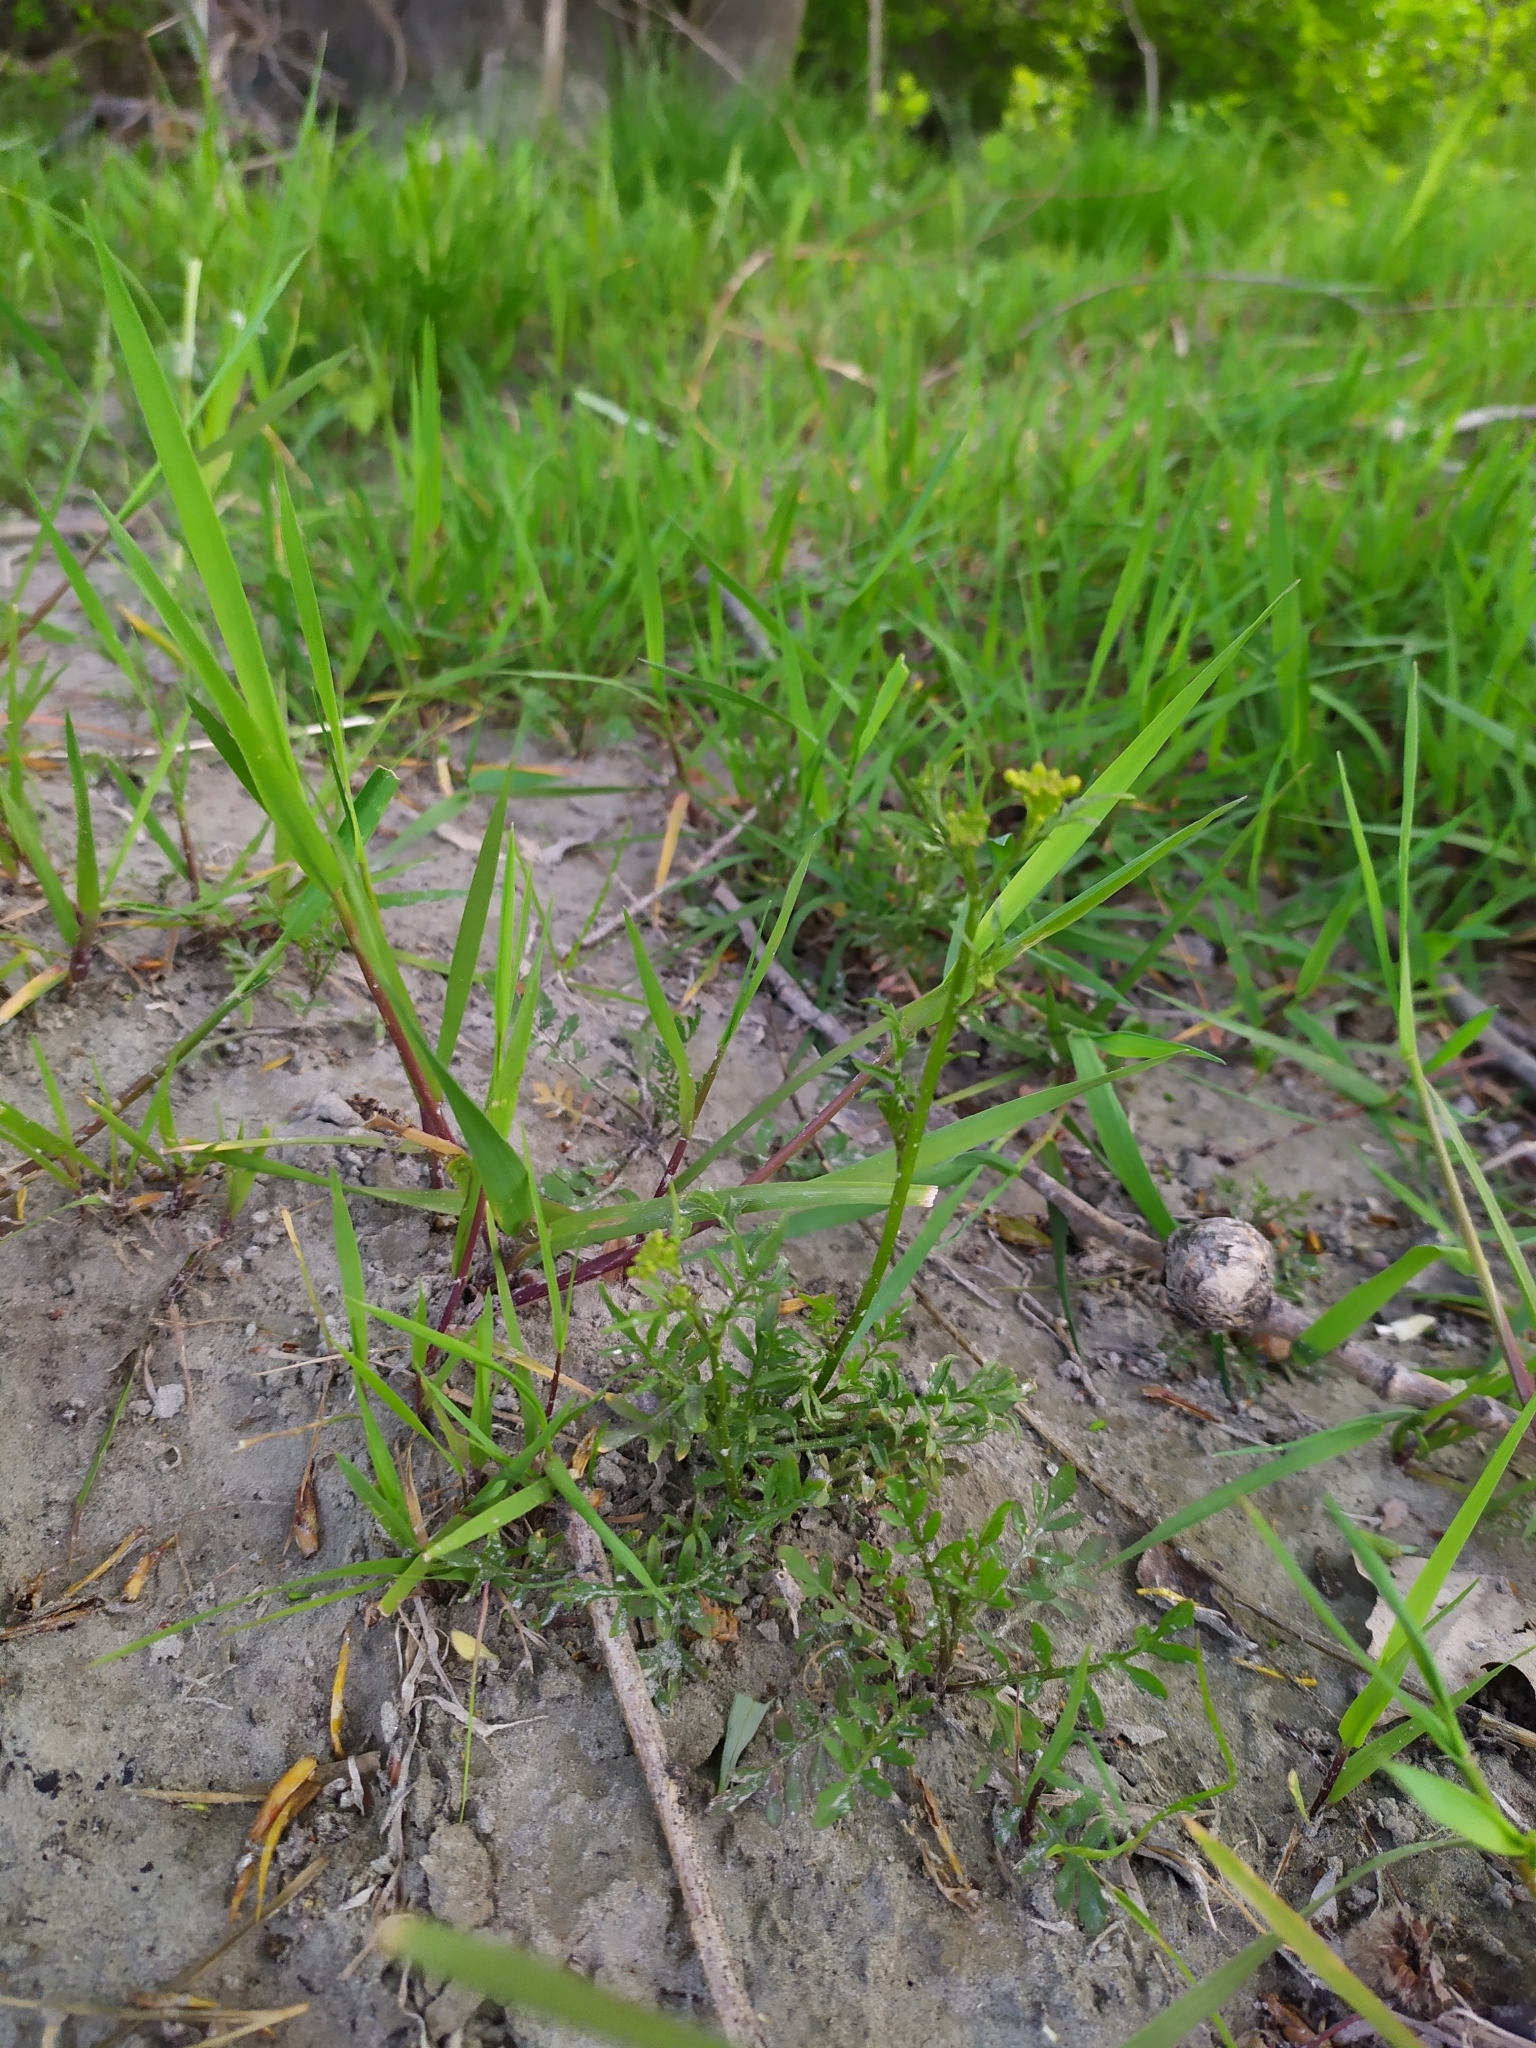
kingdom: Plantae
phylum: Tracheophyta
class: Magnoliopsida
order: Brassicales
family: Brassicaceae
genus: Rorippa
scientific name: Rorippa sylvestris
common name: Creeping yellowcress
